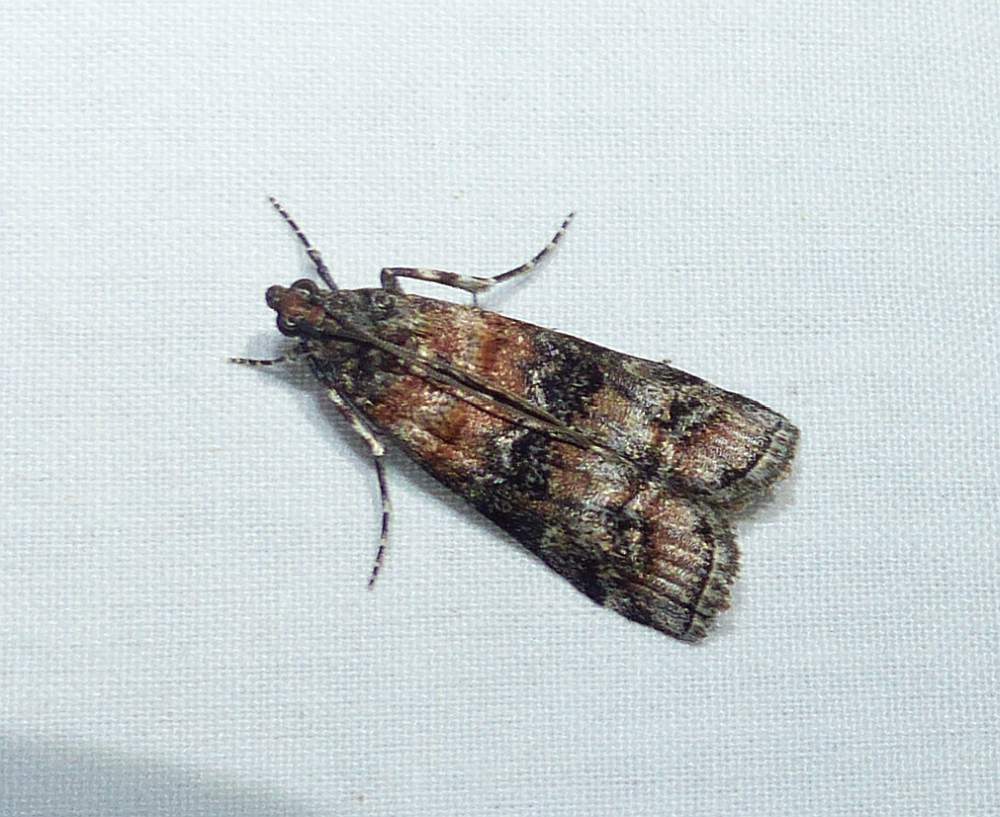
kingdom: Animalia
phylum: Arthropoda
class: Insecta
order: Lepidoptera
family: Pyralidae
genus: Dioryctria
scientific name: Dioryctria zimmermani
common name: Zimmerman pine moth
